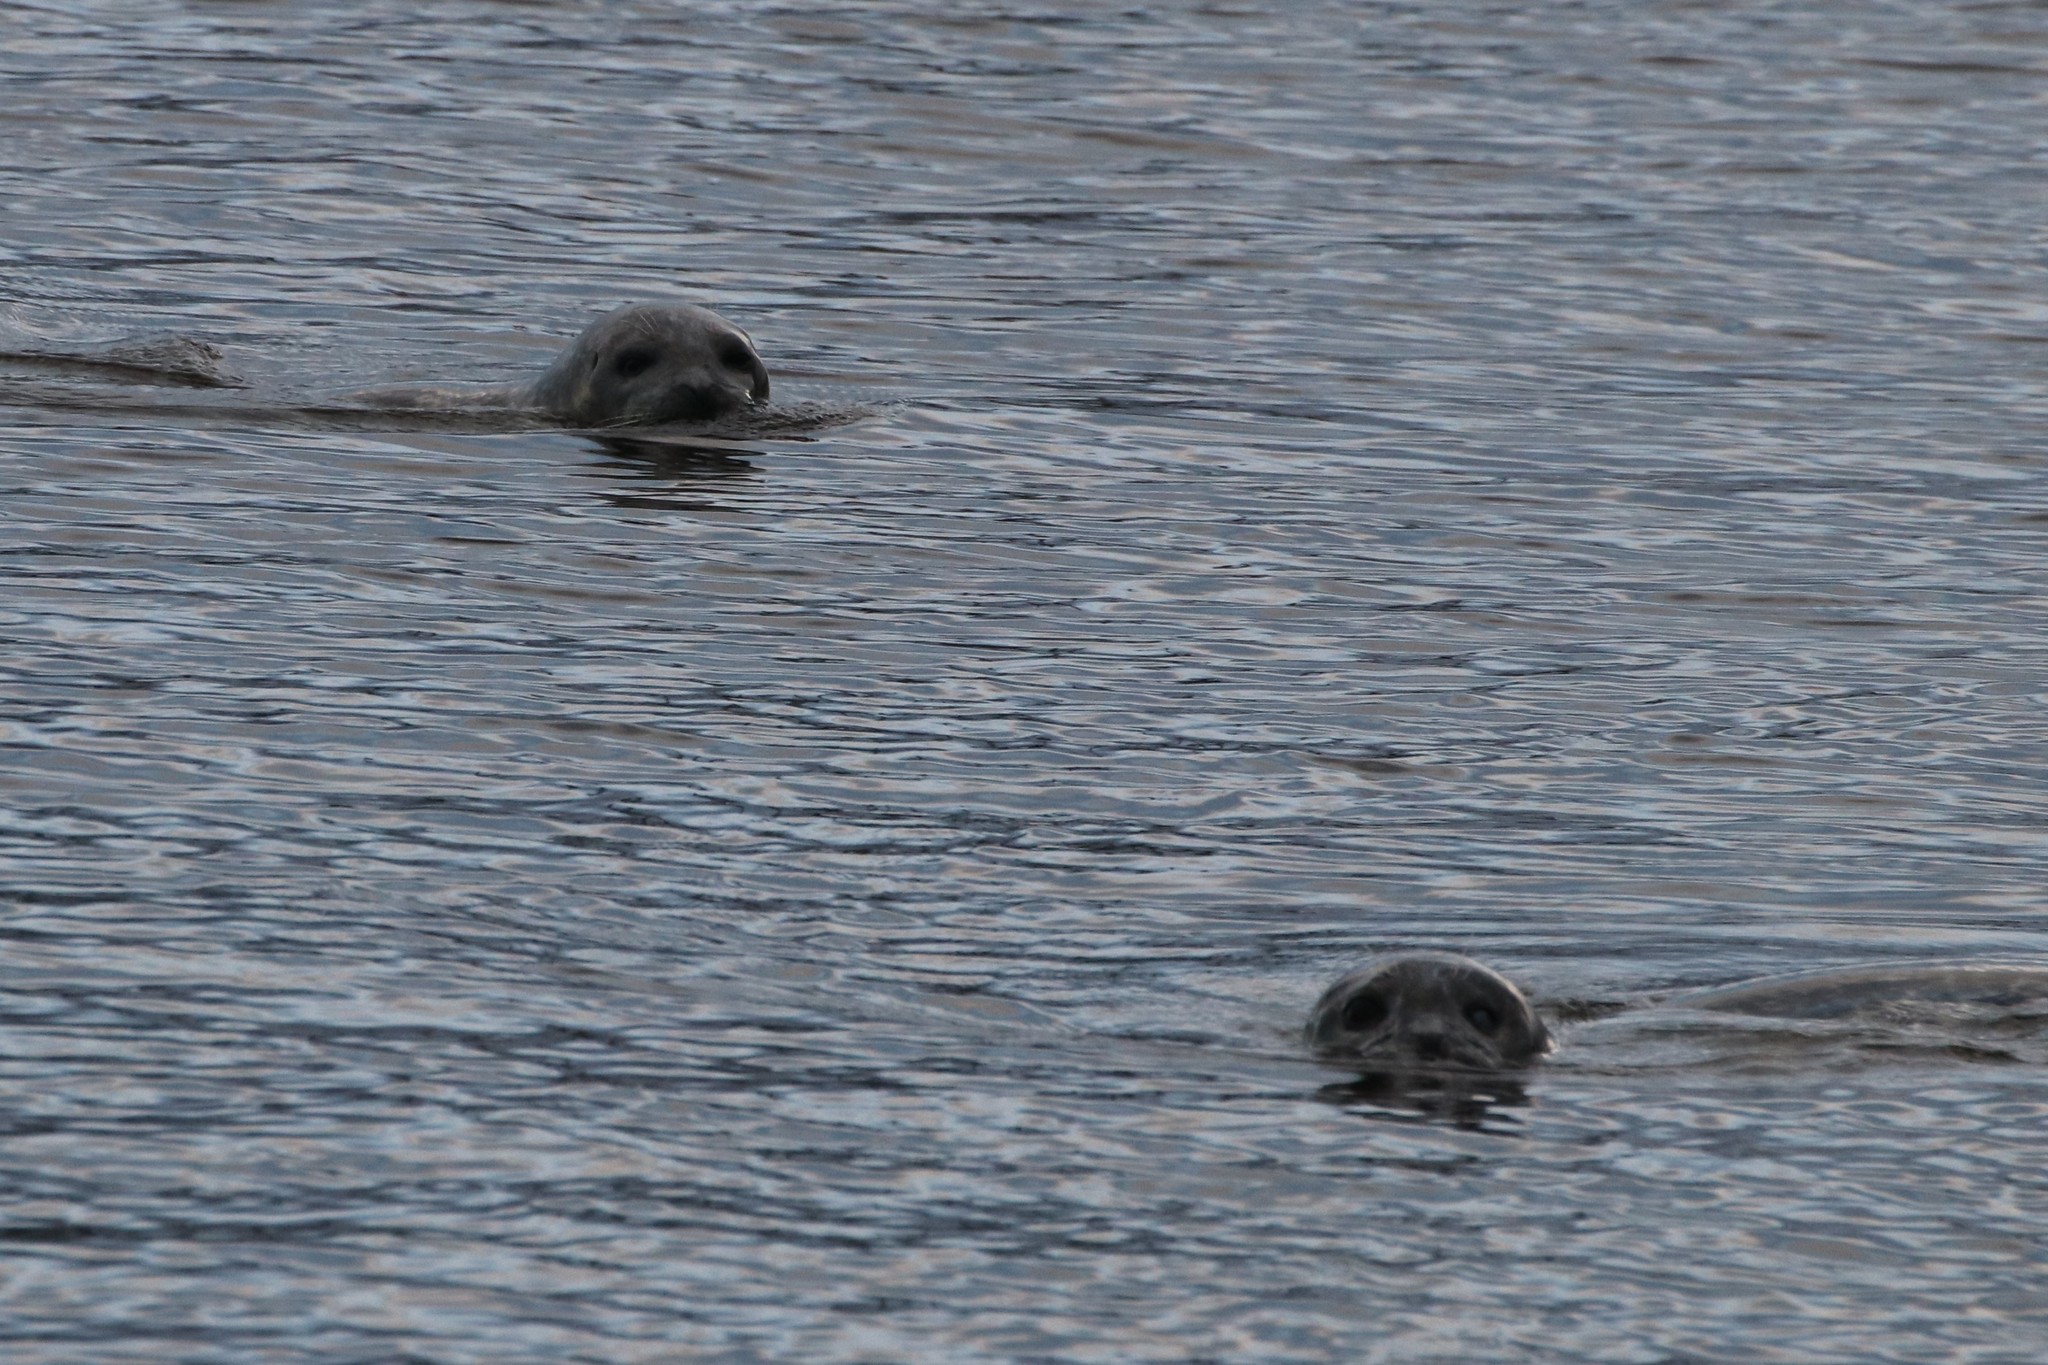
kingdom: Animalia
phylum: Chordata
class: Mammalia
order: Carnivora
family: Phocidae
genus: Phoca
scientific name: Phoca vitulina
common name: Harbor seal
